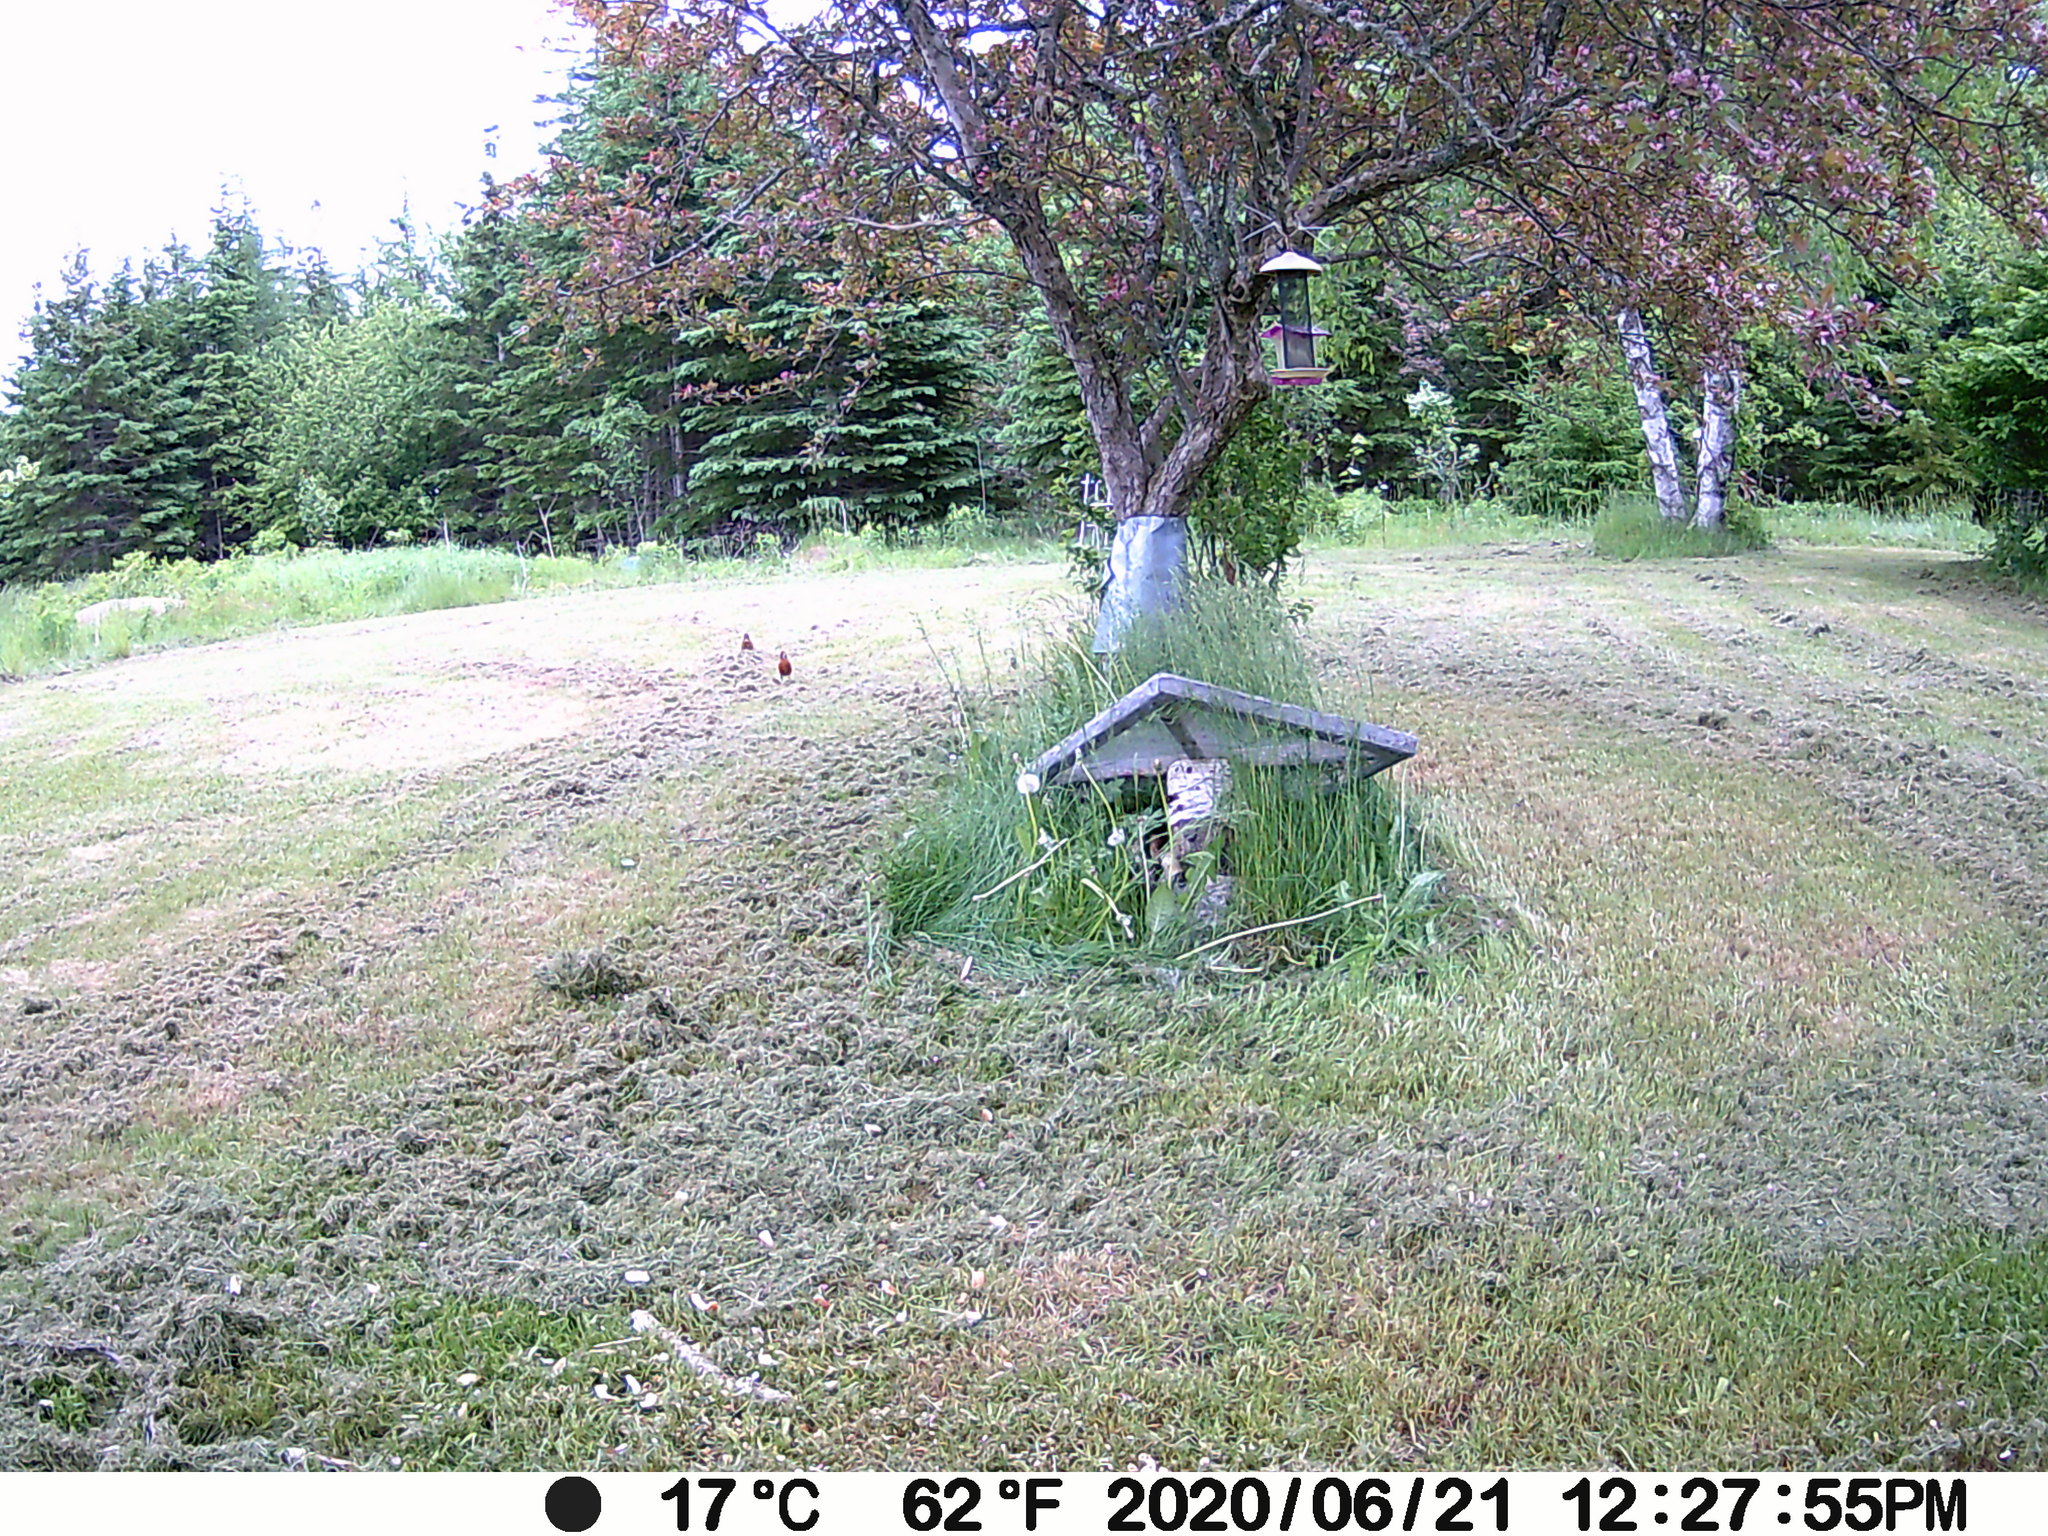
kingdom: Animalia
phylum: Chordata
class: Aves
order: Passeriformes
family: Turdidae
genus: Turdus
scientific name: Turdus migratorius
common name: American robin
